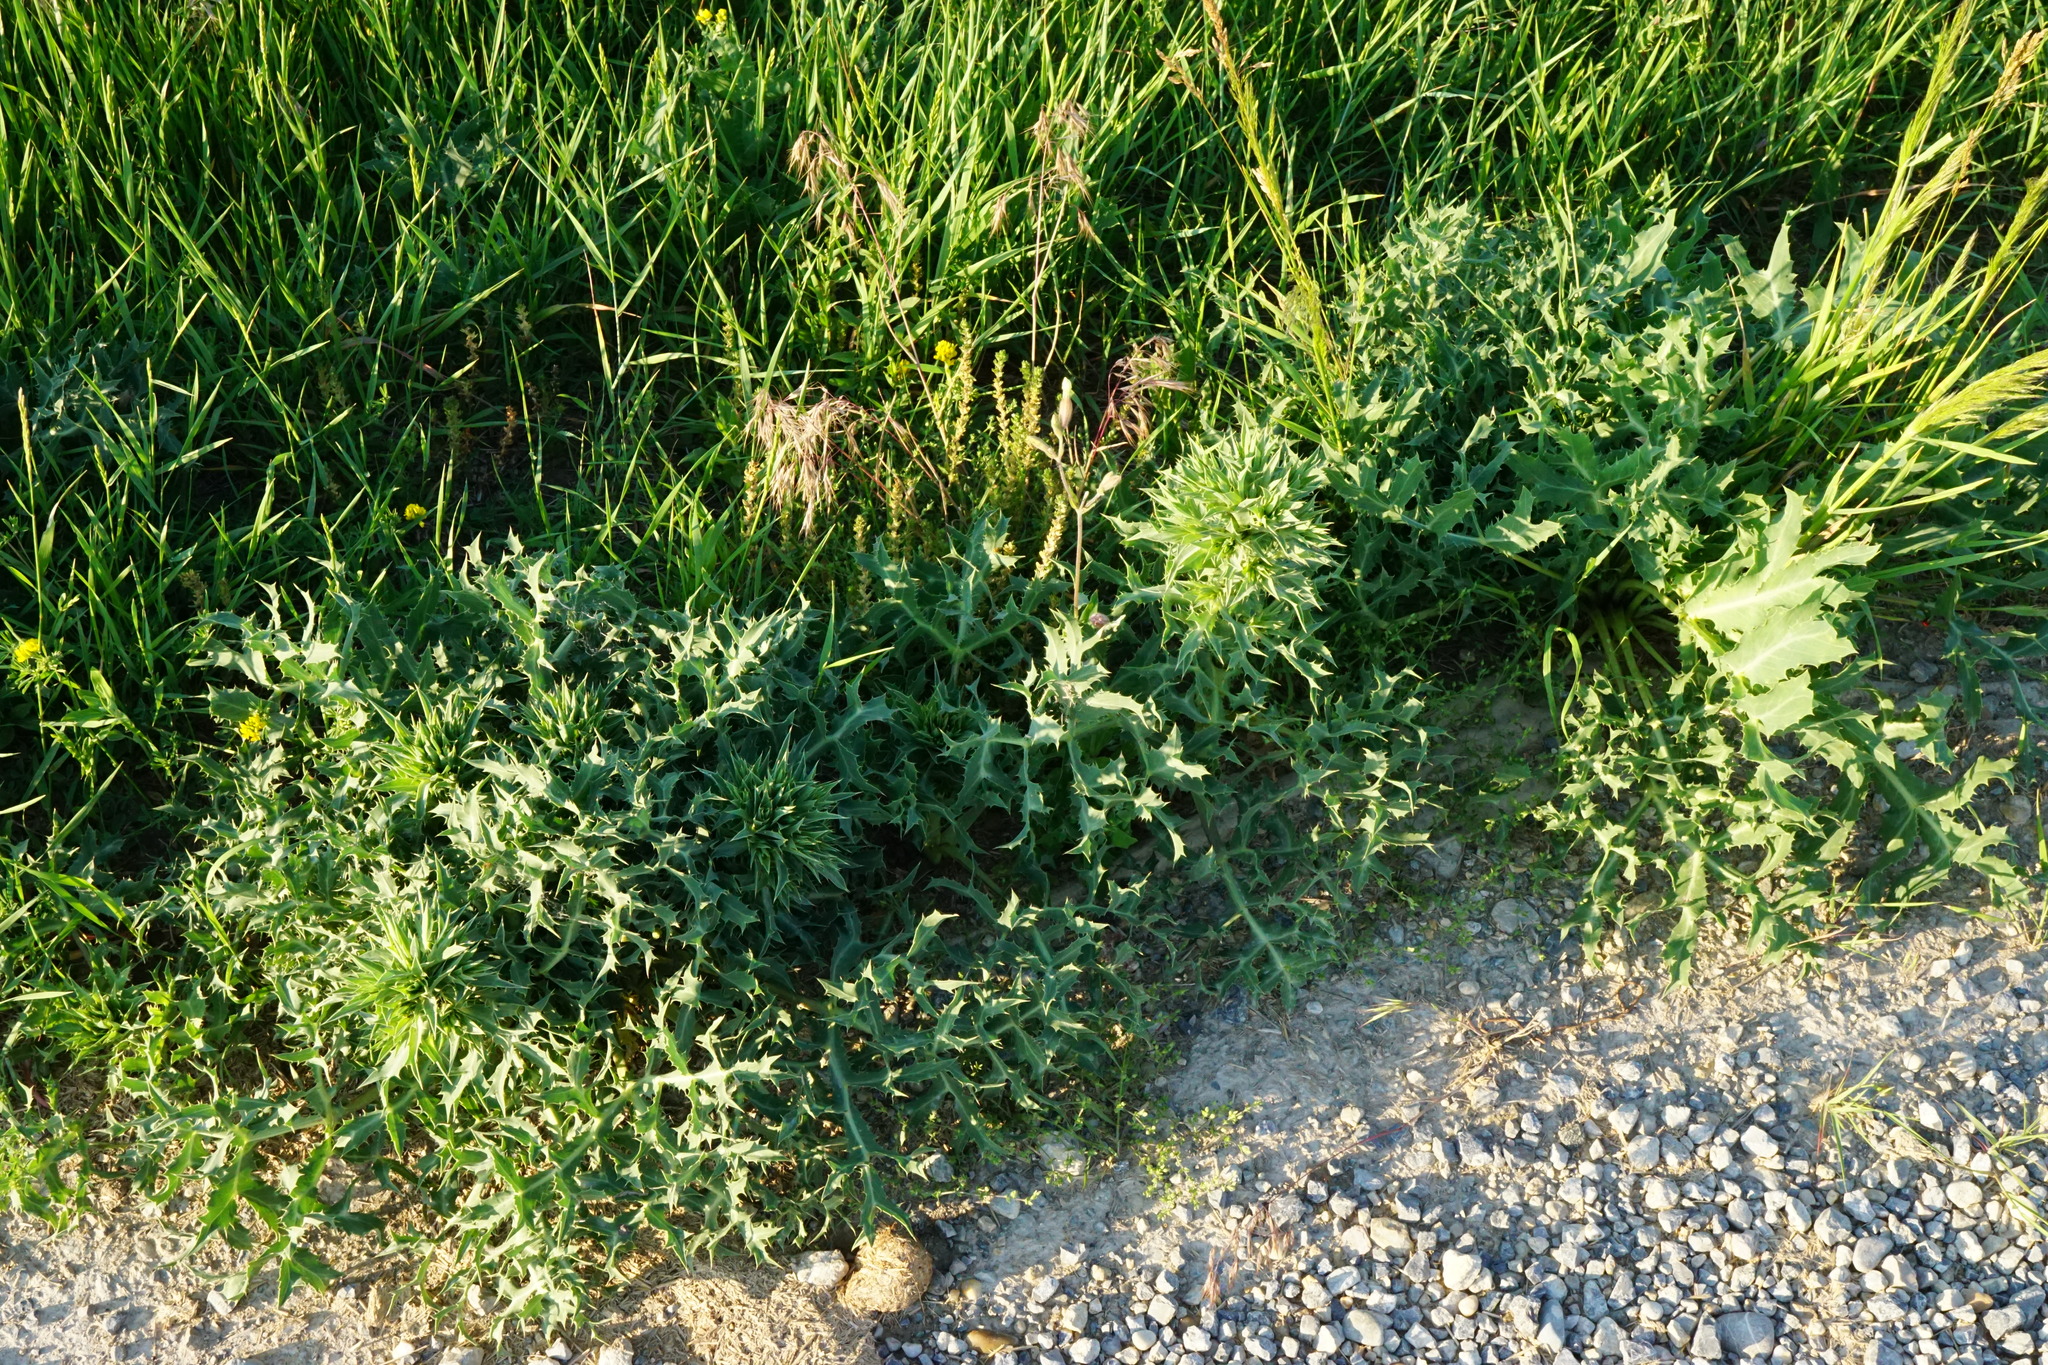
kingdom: Plantae
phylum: Tracheophyta
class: Magnoliopsida
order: Apiales
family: Apiaceae
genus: Eryngium
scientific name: Eryngium campestre
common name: Field eryngo
